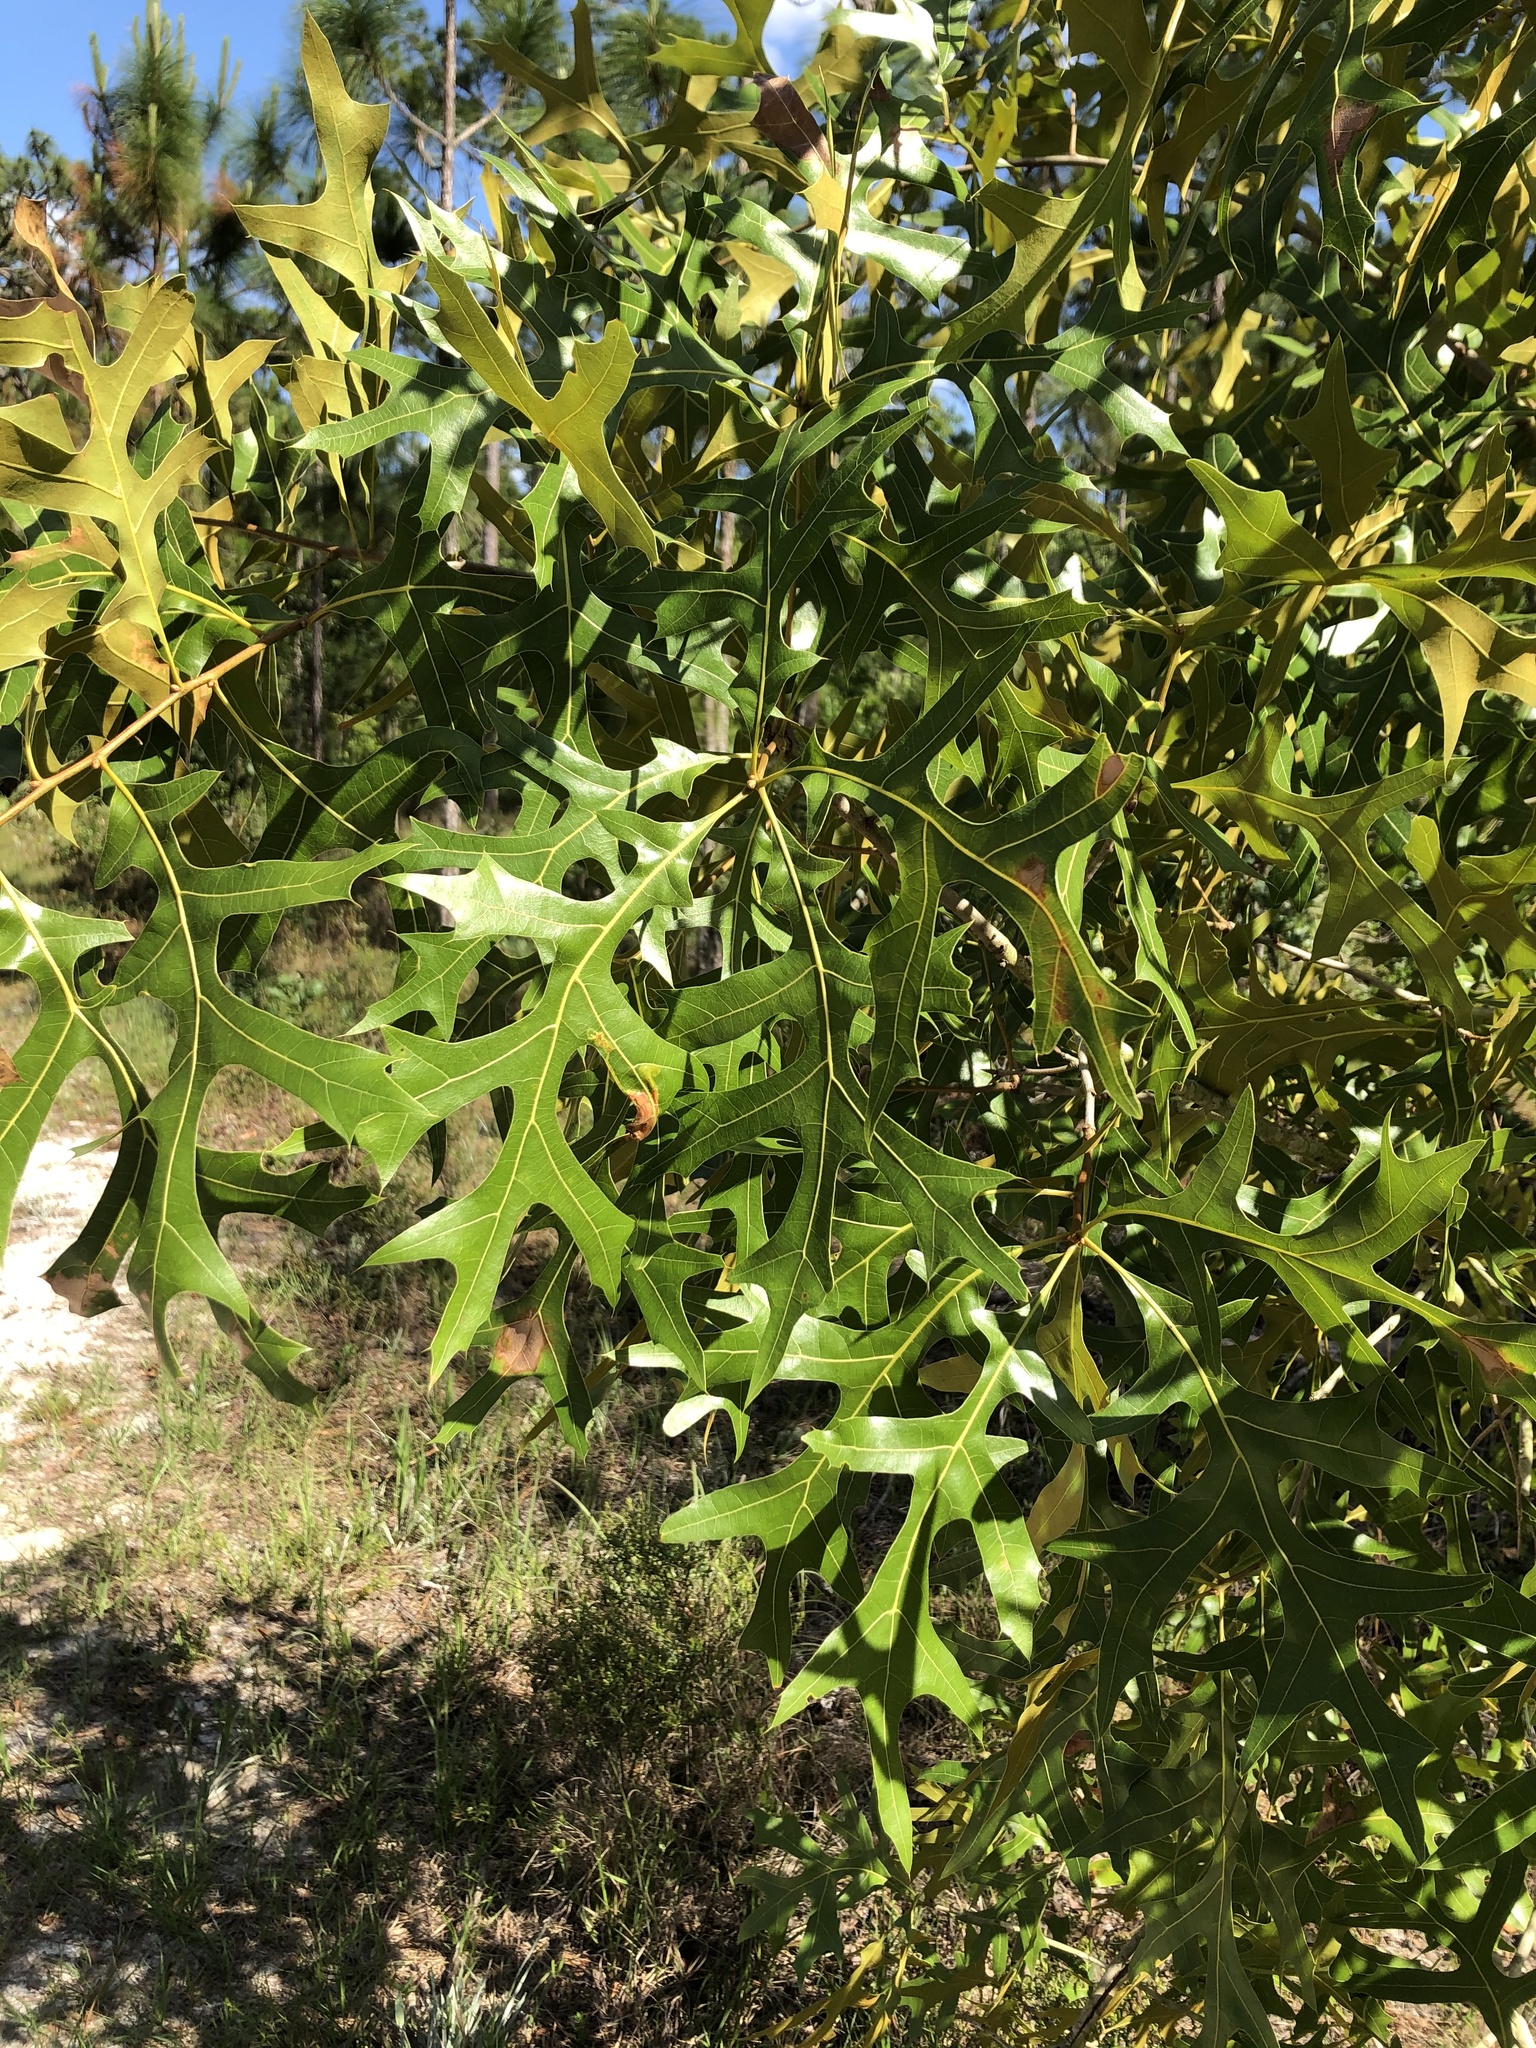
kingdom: Plantae
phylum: Tracheophyta
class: Magnoliopsida
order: Fagales
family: Fagaceae
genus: Quercus
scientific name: Quercus laevis
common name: Turkey oak
